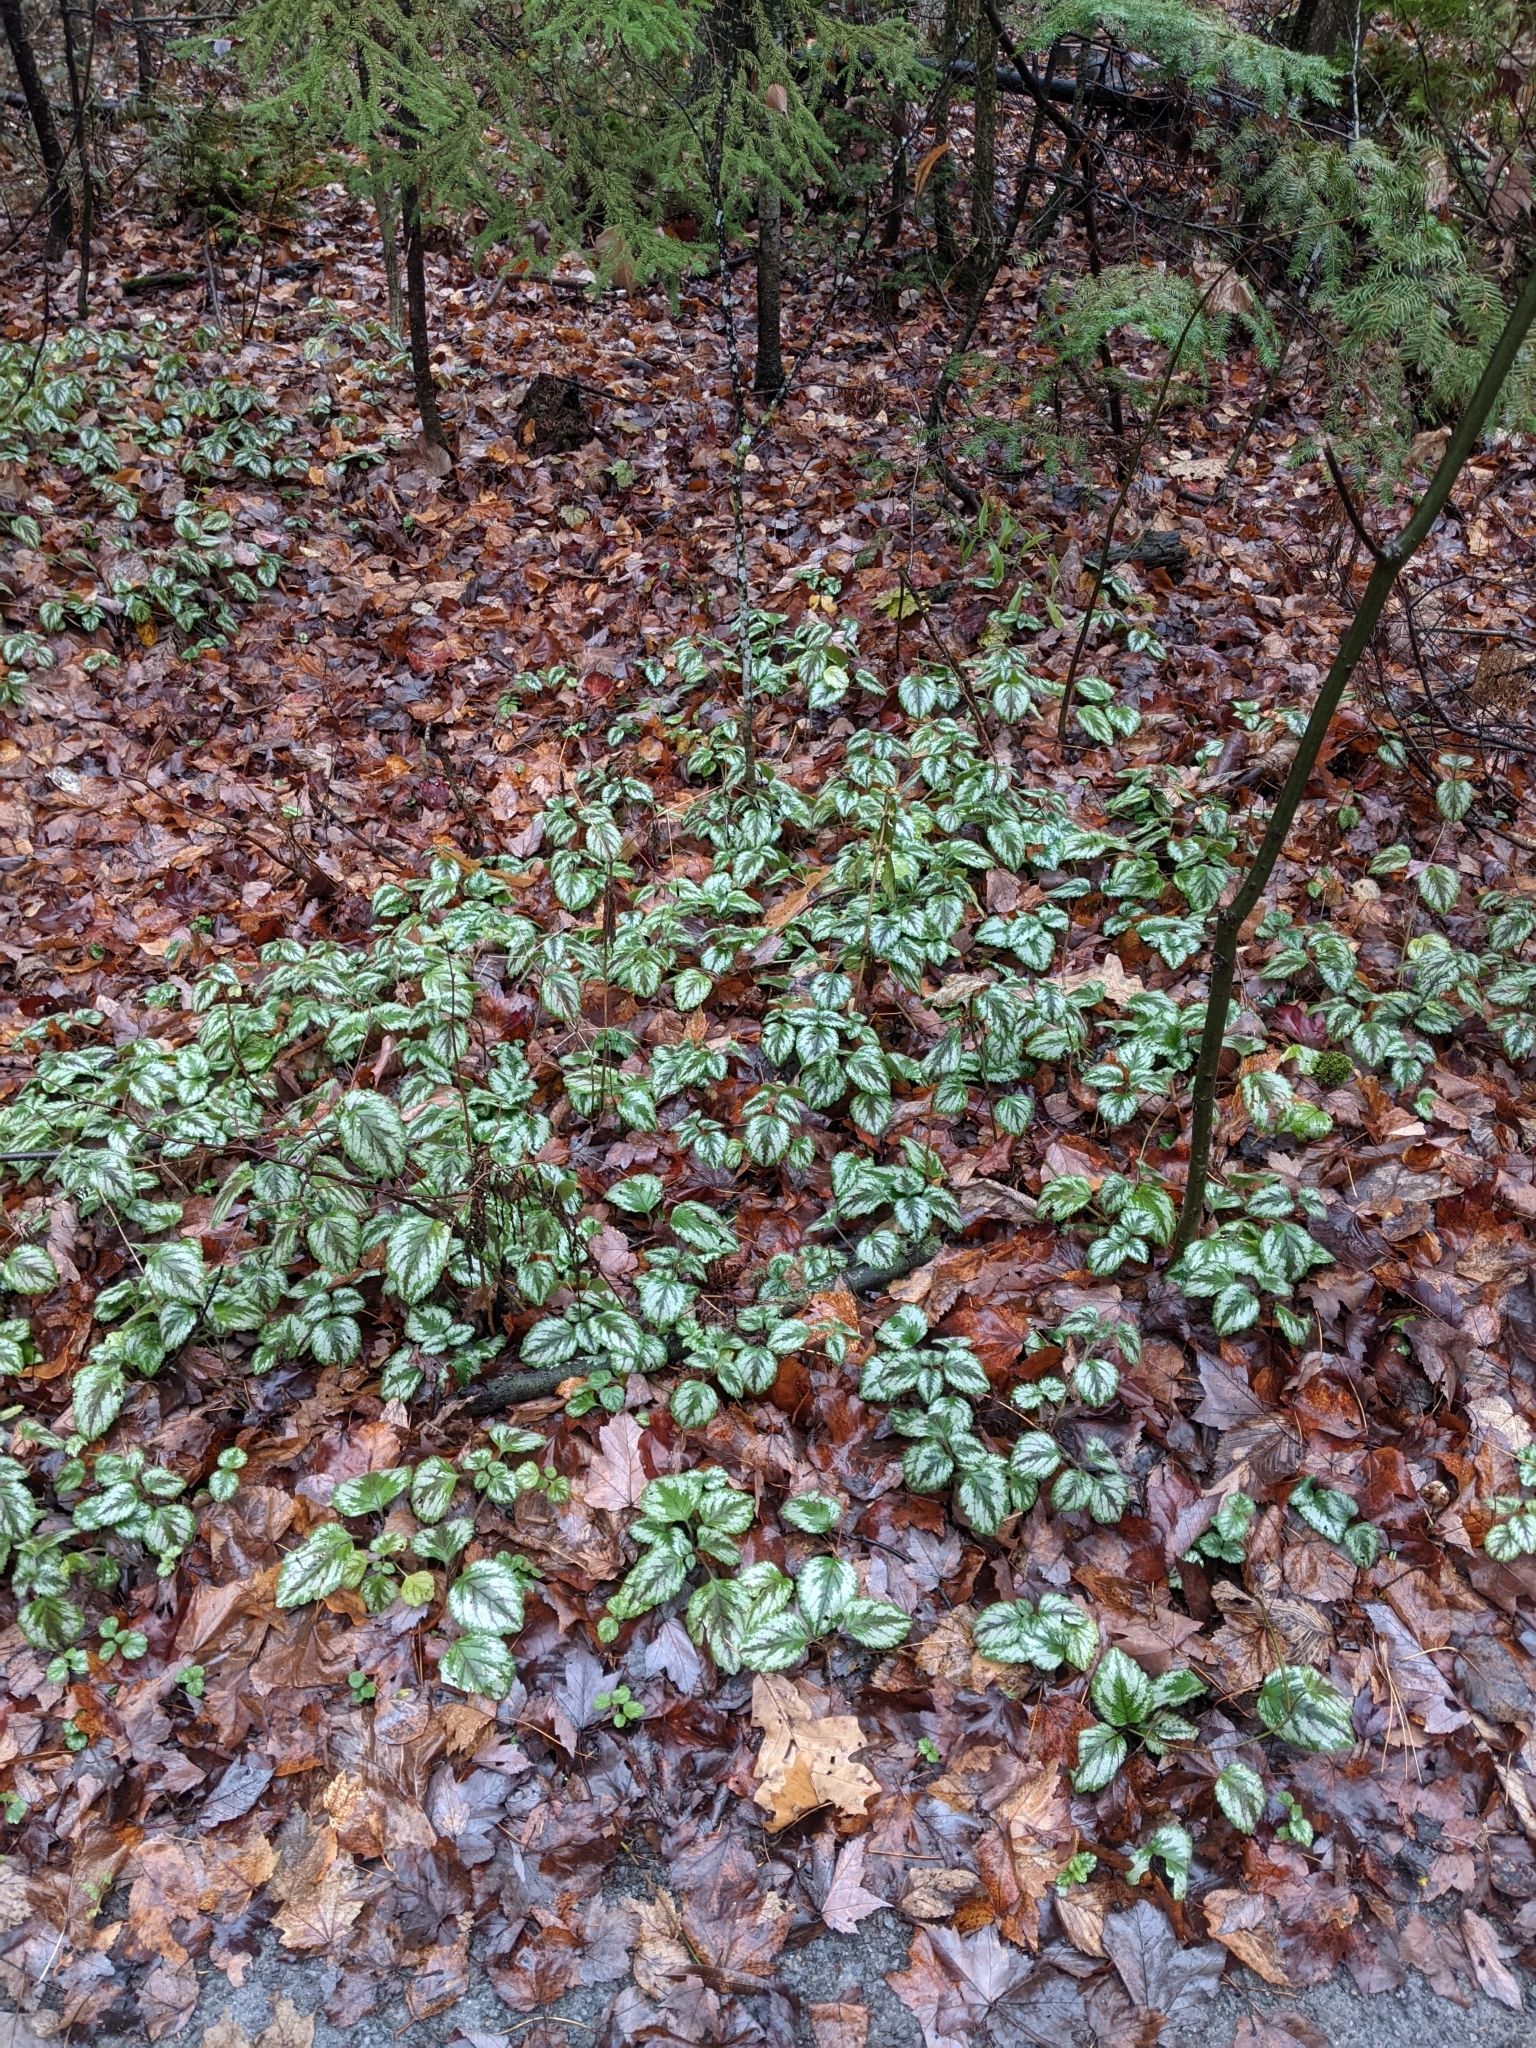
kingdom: Plantae
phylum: Tracheophyta
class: Magnoliopsida
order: Lamiales
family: Lamiaceae
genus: Lamium
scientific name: Lamium galeobdolon
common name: Yellow archangel
